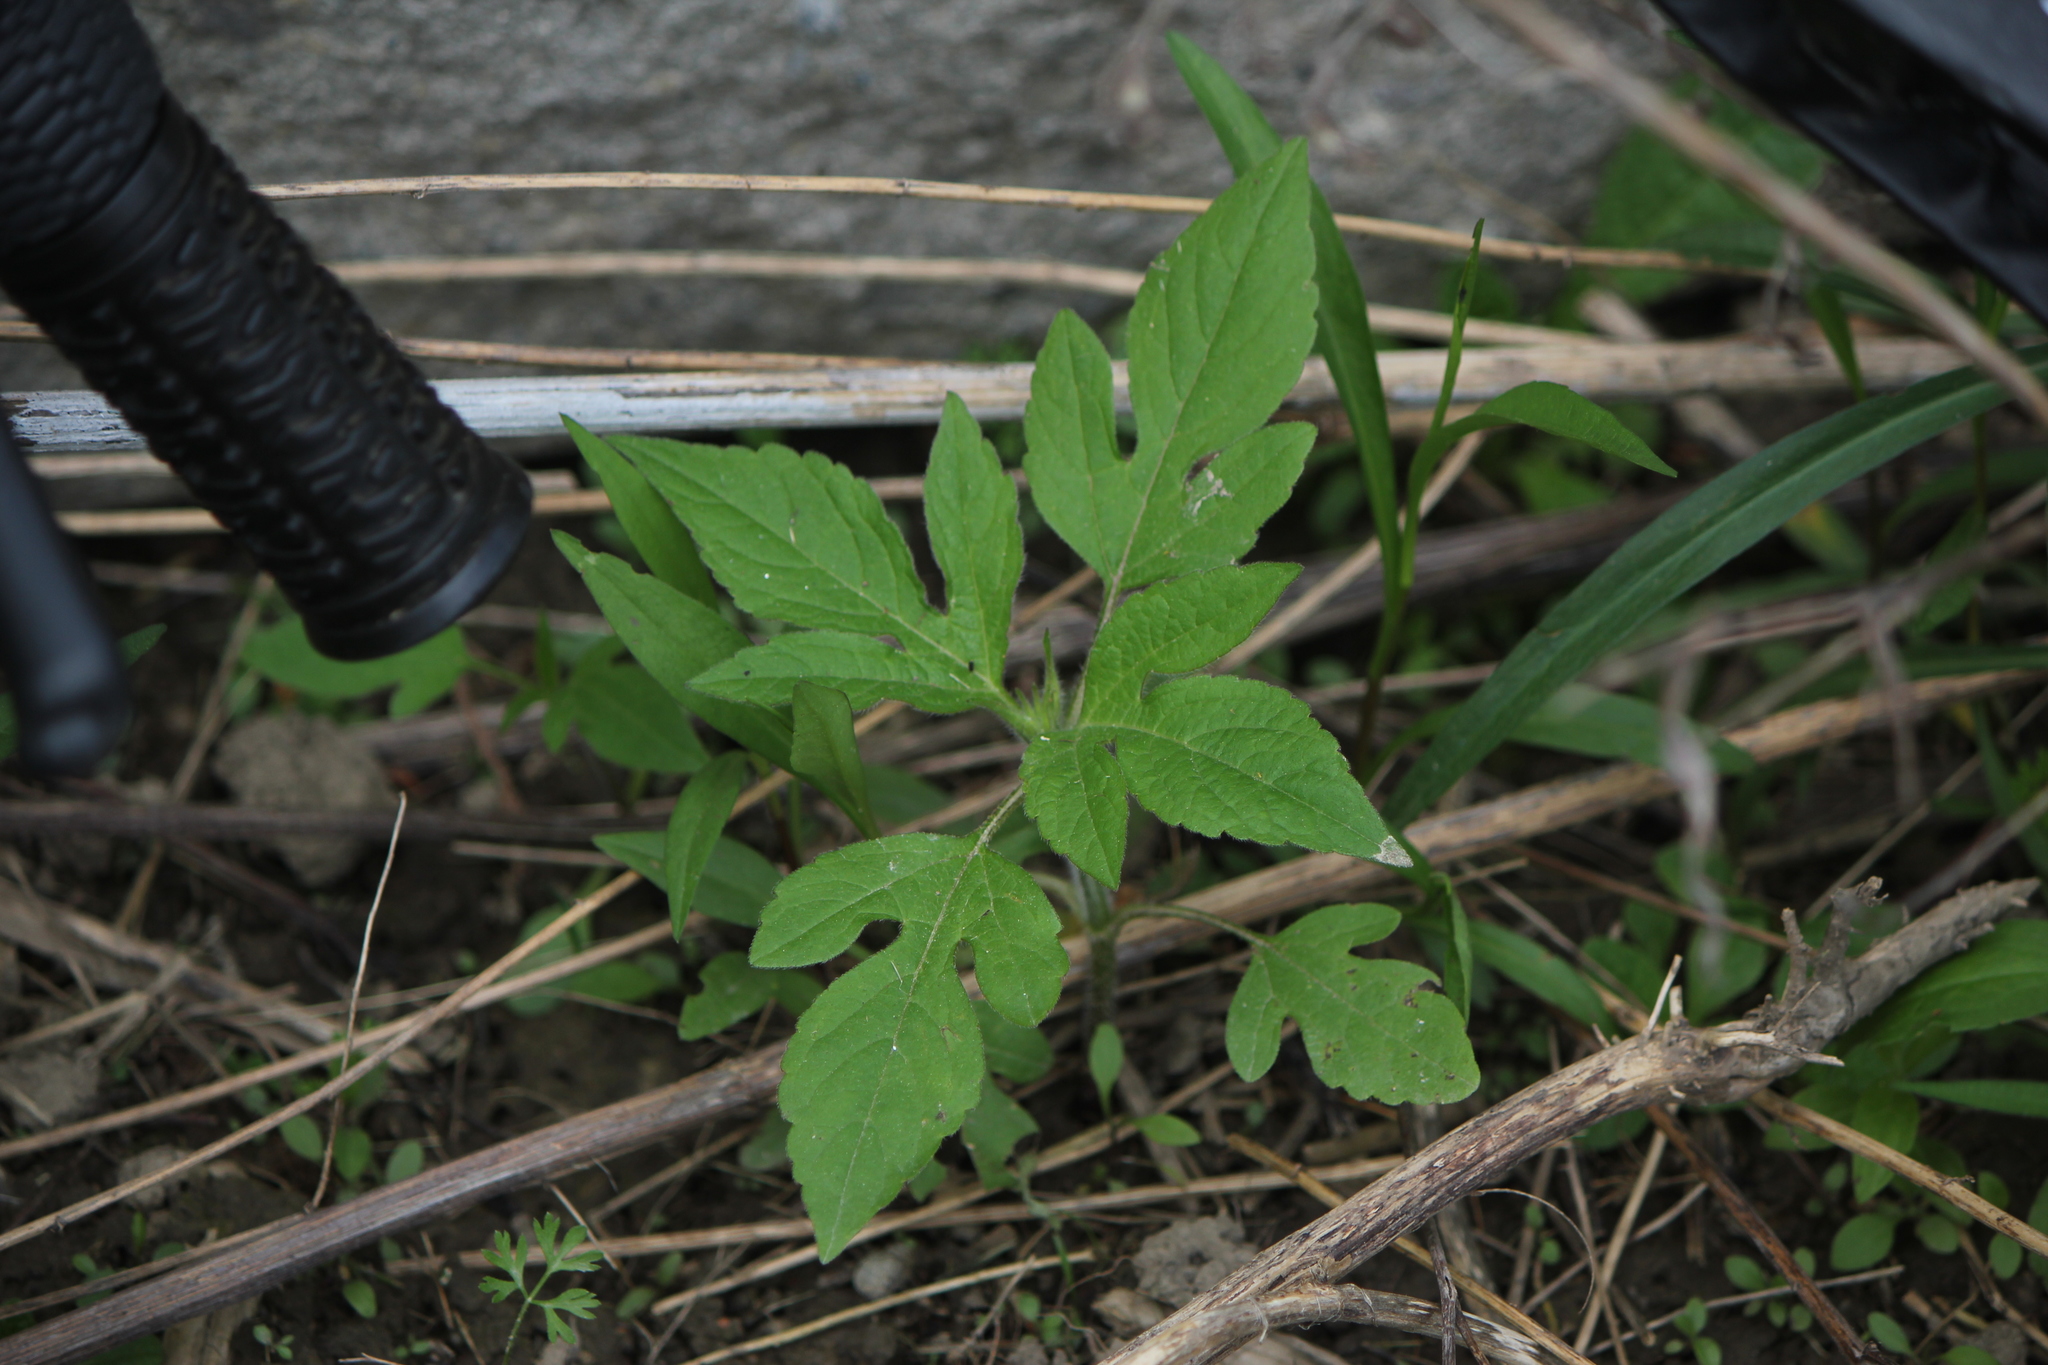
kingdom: Plantae
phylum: Tracheophyta
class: Magnoliopsida
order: Asterales
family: Asteraceae
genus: Ambrosia
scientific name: Ambrosia trifida
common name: Giant ragweed
